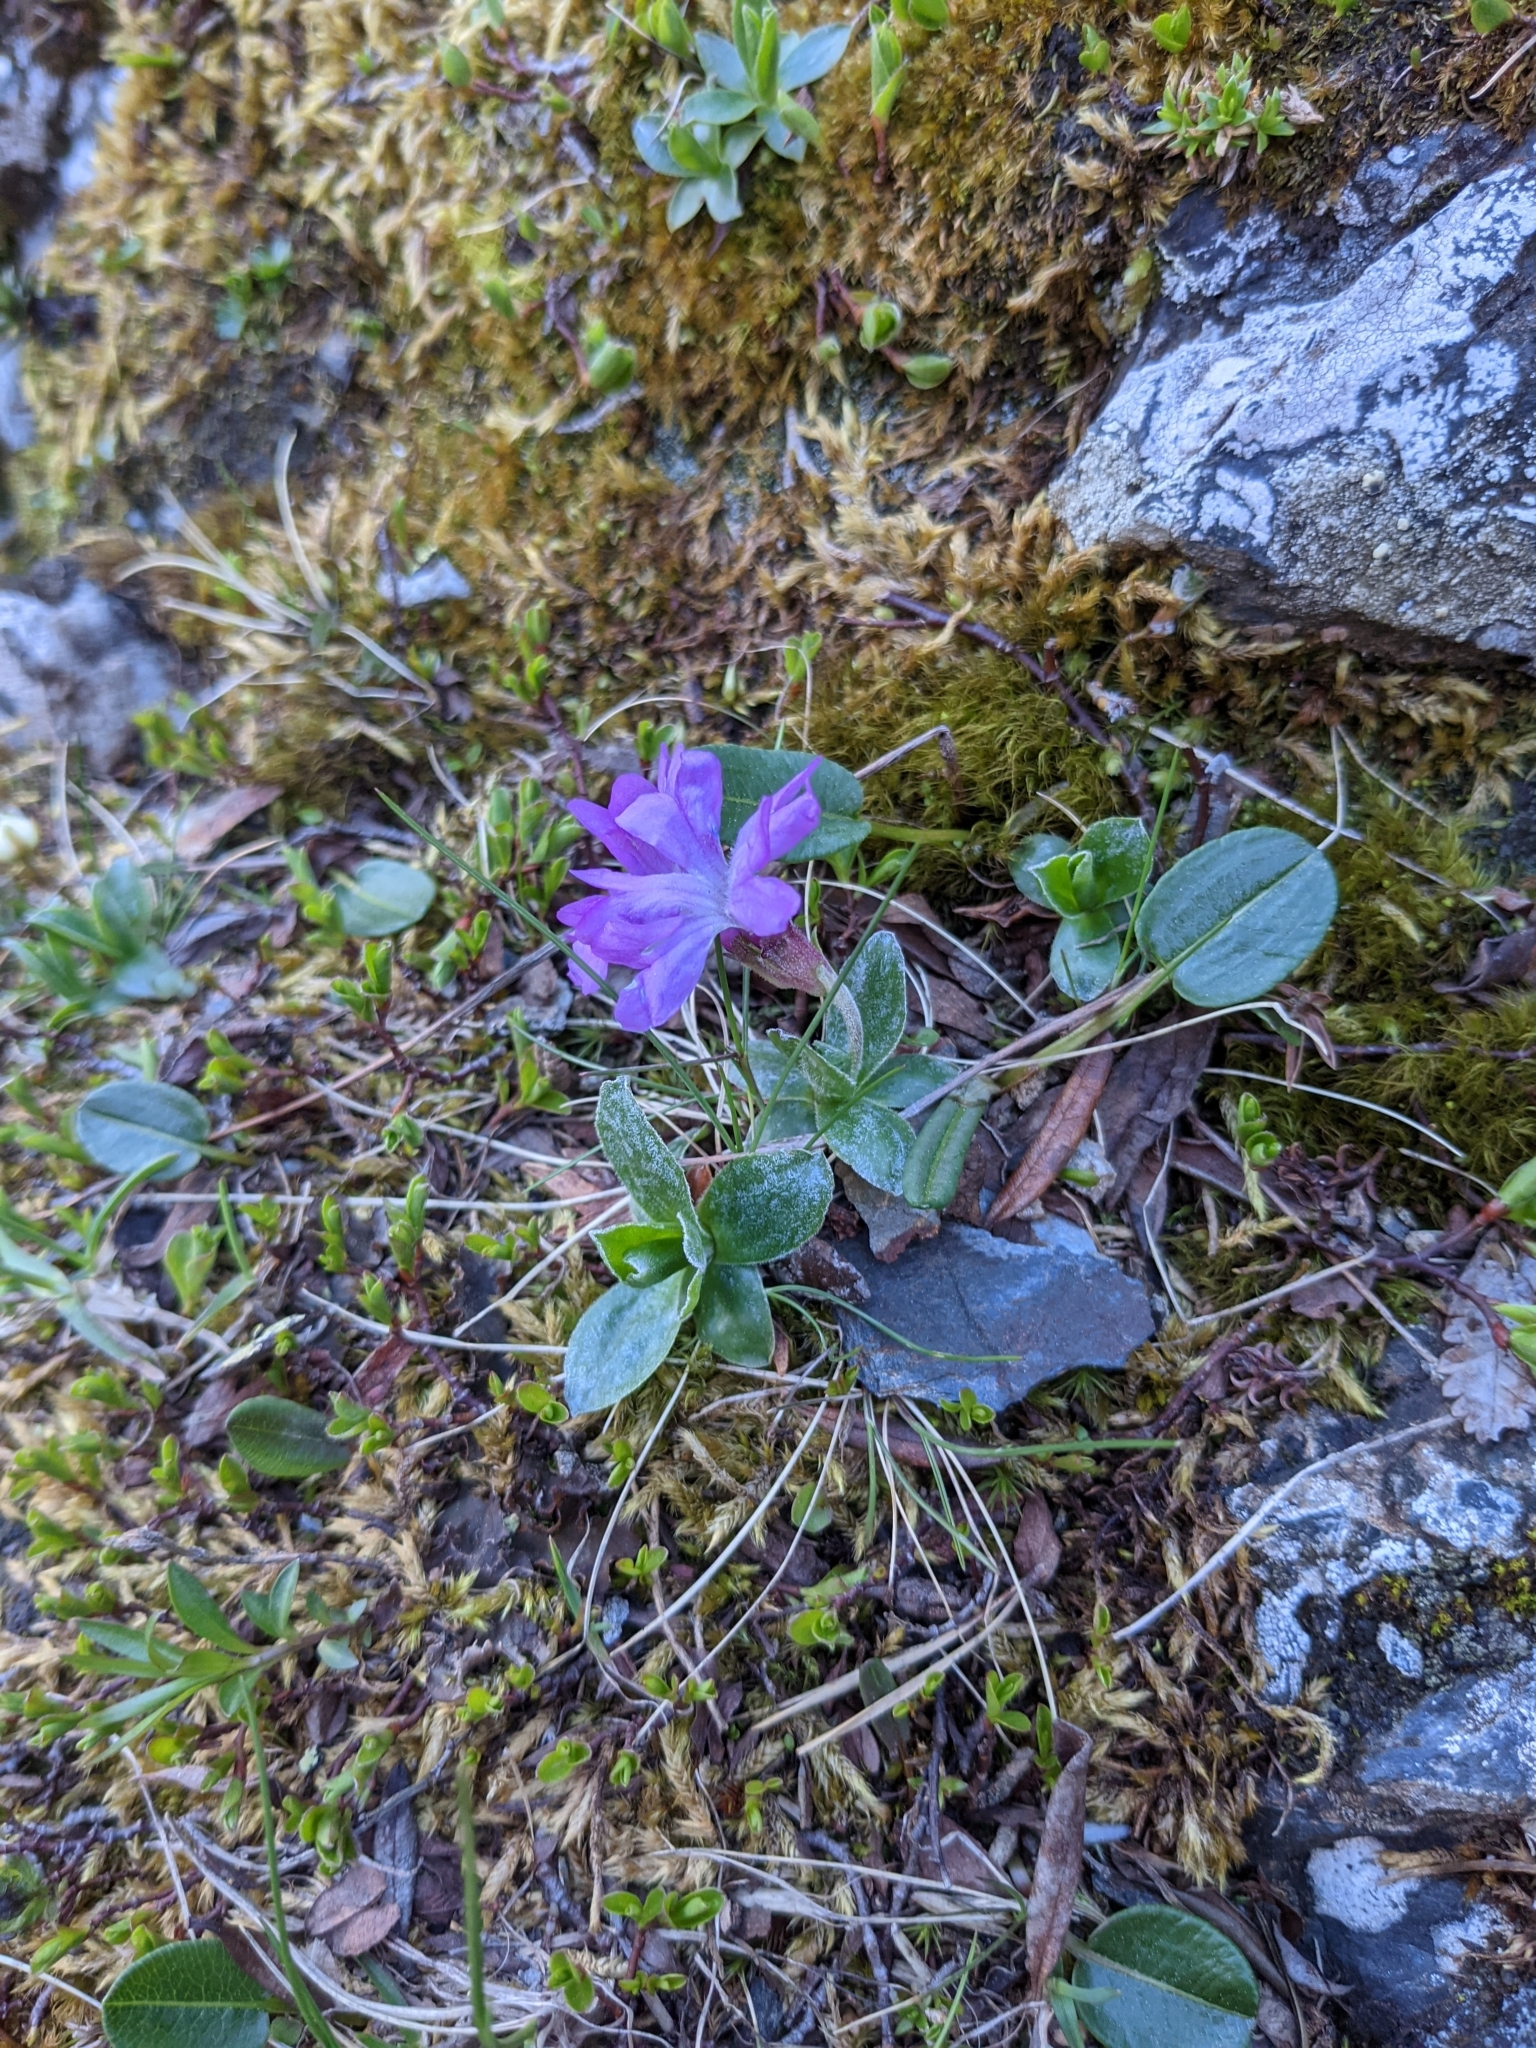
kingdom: Plantae
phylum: Tracheophyta
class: Magnoliopsida
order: Ericales
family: Primulaceae
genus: Primula
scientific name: Primula integrifolia
